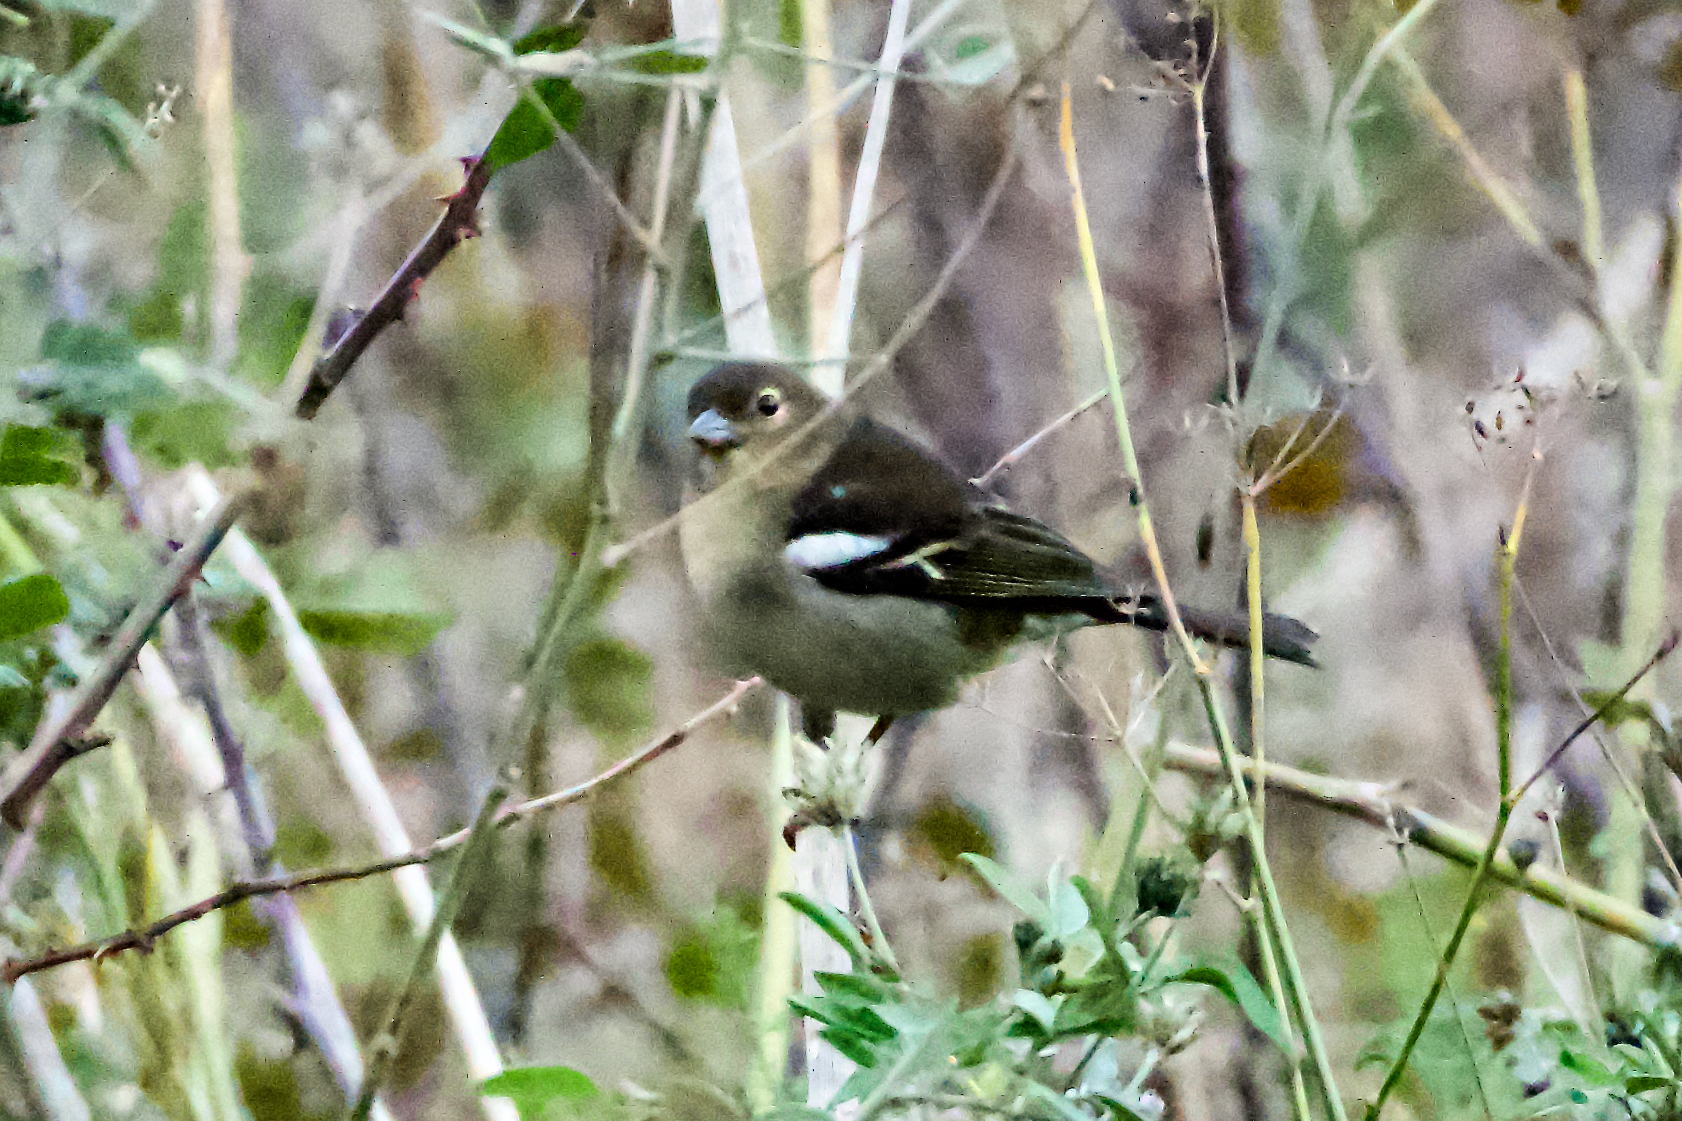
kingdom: Animalia
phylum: Chordata
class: Aves
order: Passeriformes
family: Fringillidae
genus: Fringilla
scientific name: Fringilla canariensis
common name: Canary islands chaffinch
